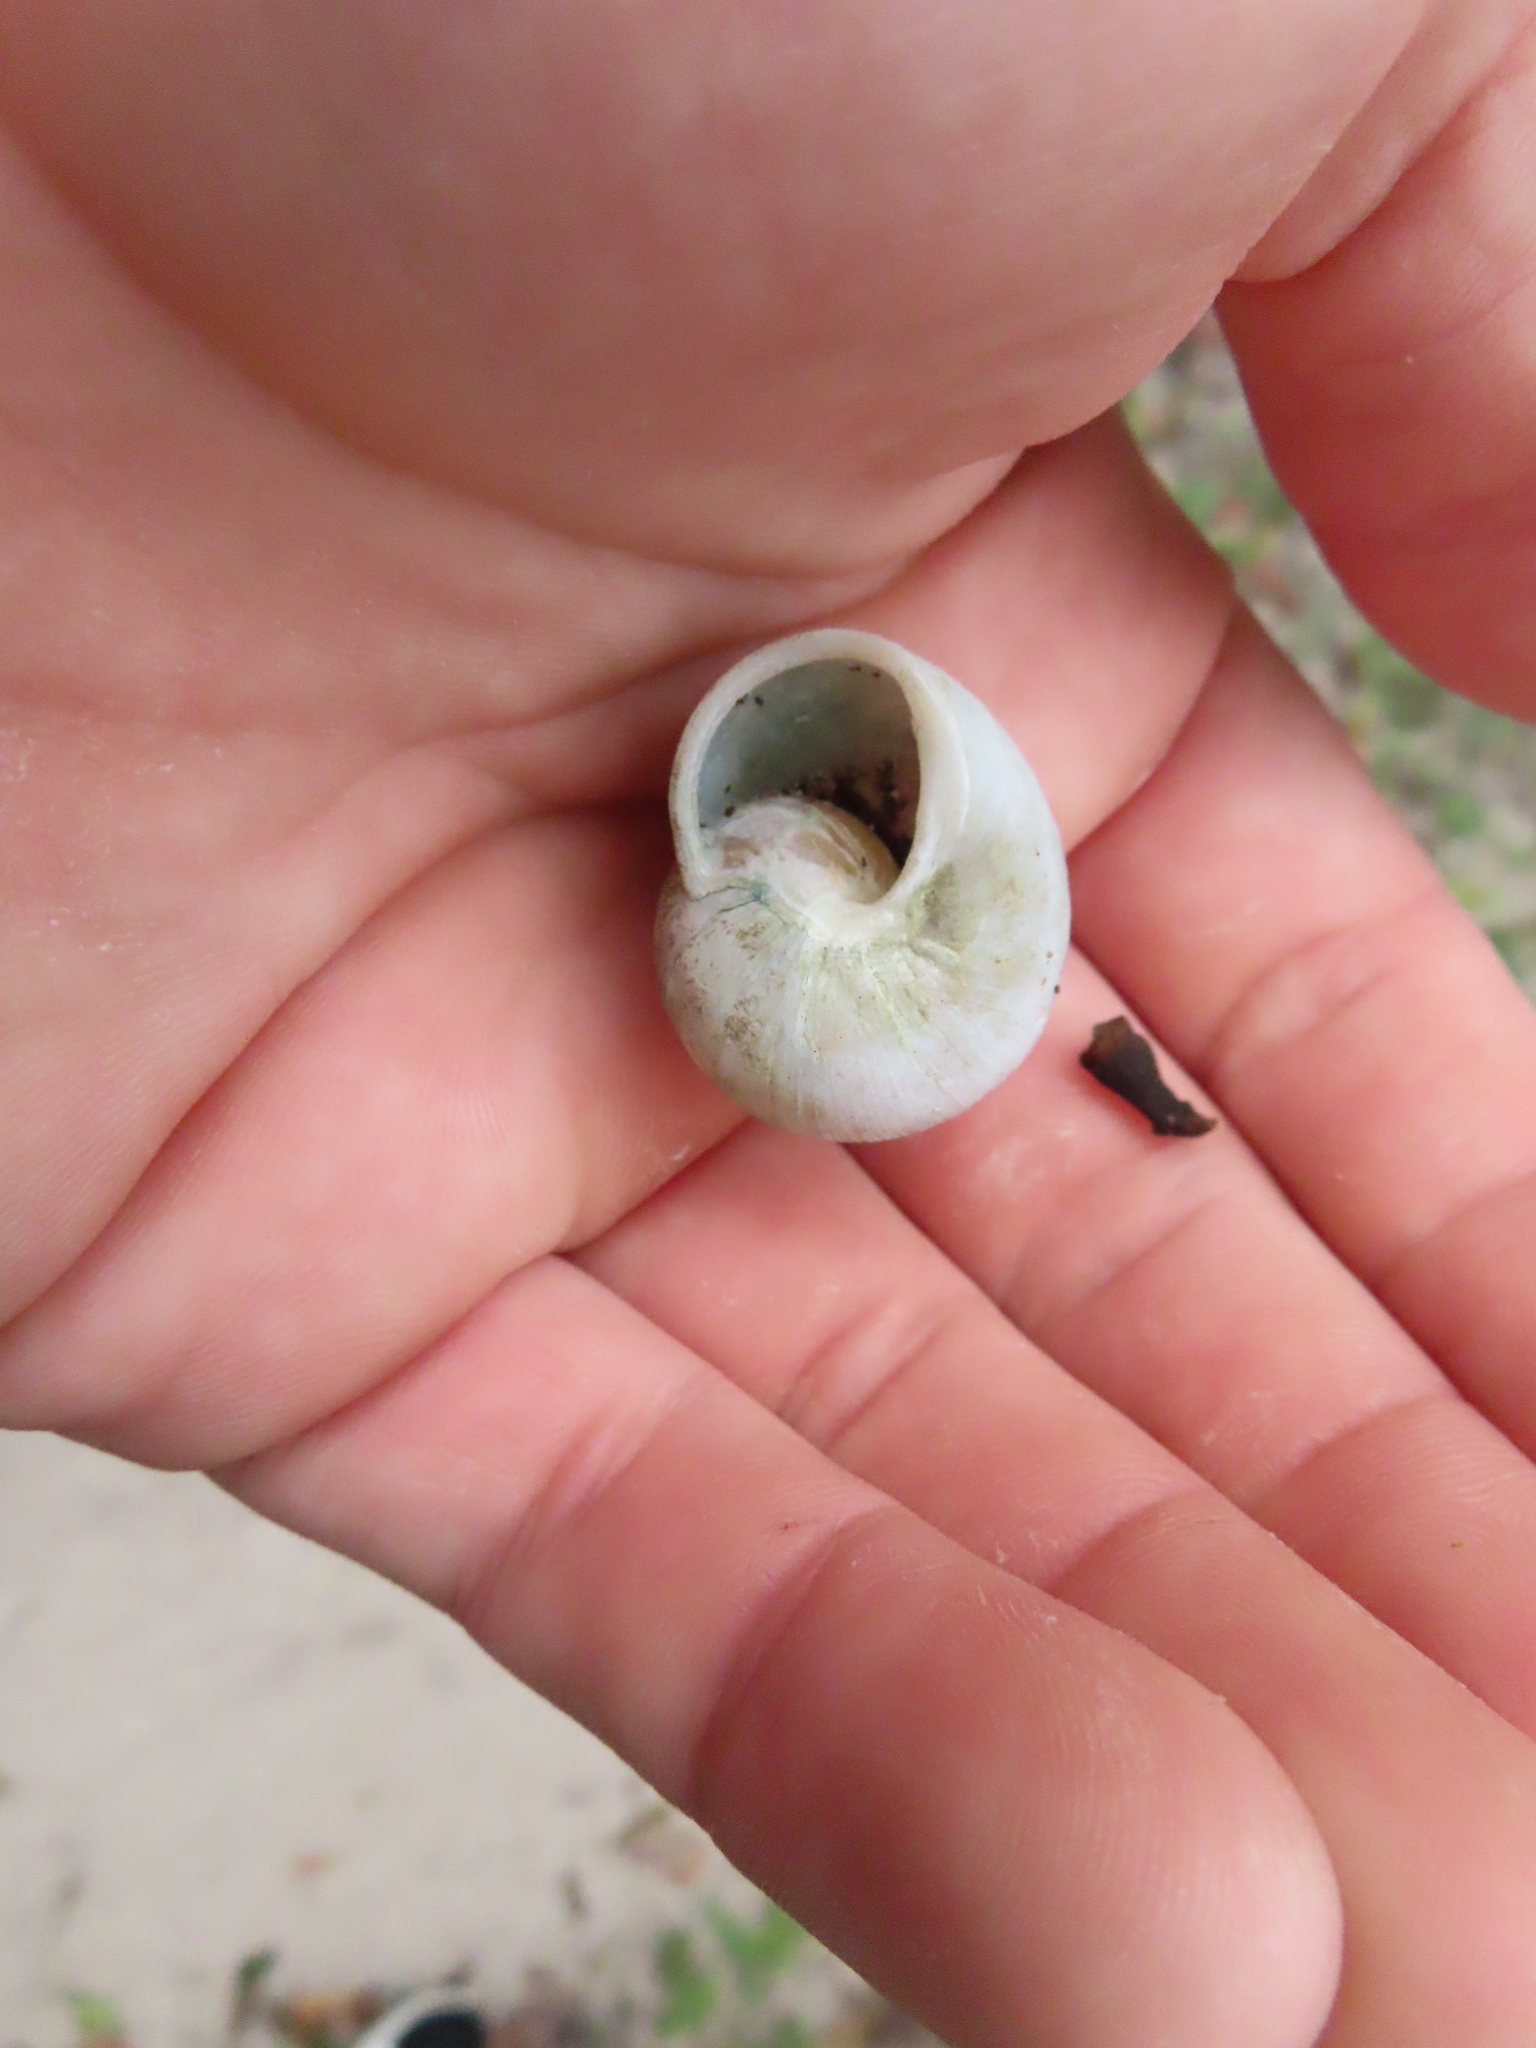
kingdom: Animalia
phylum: Mollusca
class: Gastropoda
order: Stylommatophora
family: Zachrysiidae
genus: Zachrysia
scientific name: Zachrysia provisoria
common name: Garden zachrysia
